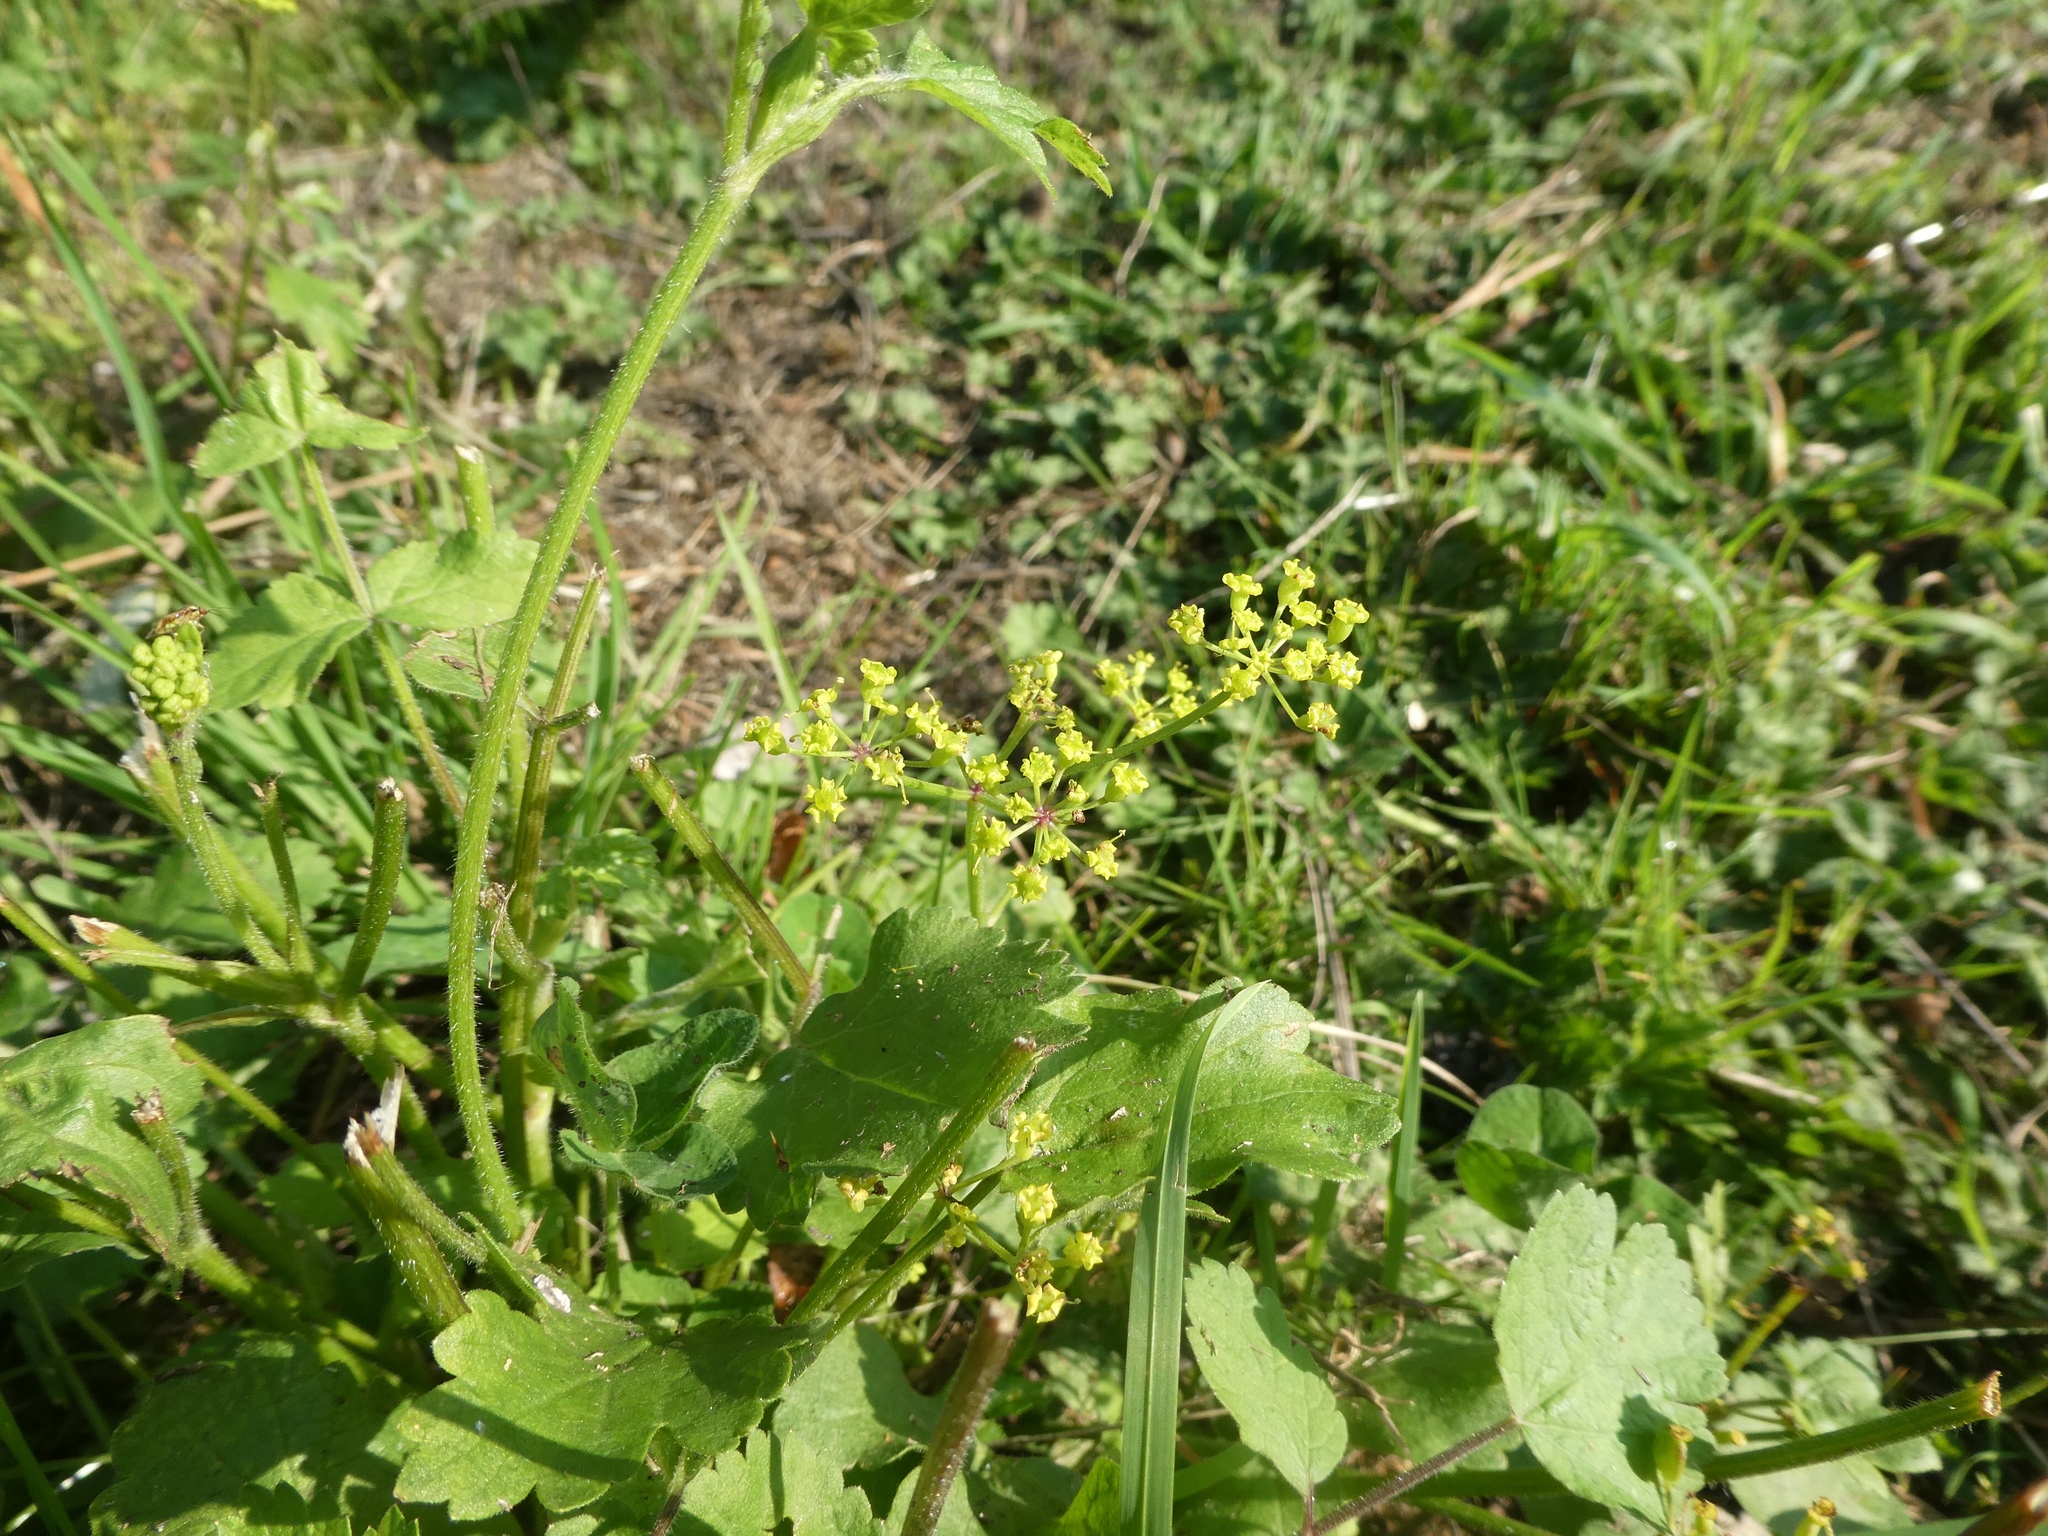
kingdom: Plantae
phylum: Tracheophyta
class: Magnoliopsida
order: Apiales
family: Apiaceae
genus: Pastinaca
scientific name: Pastinaca sativa
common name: Wild parsnip
